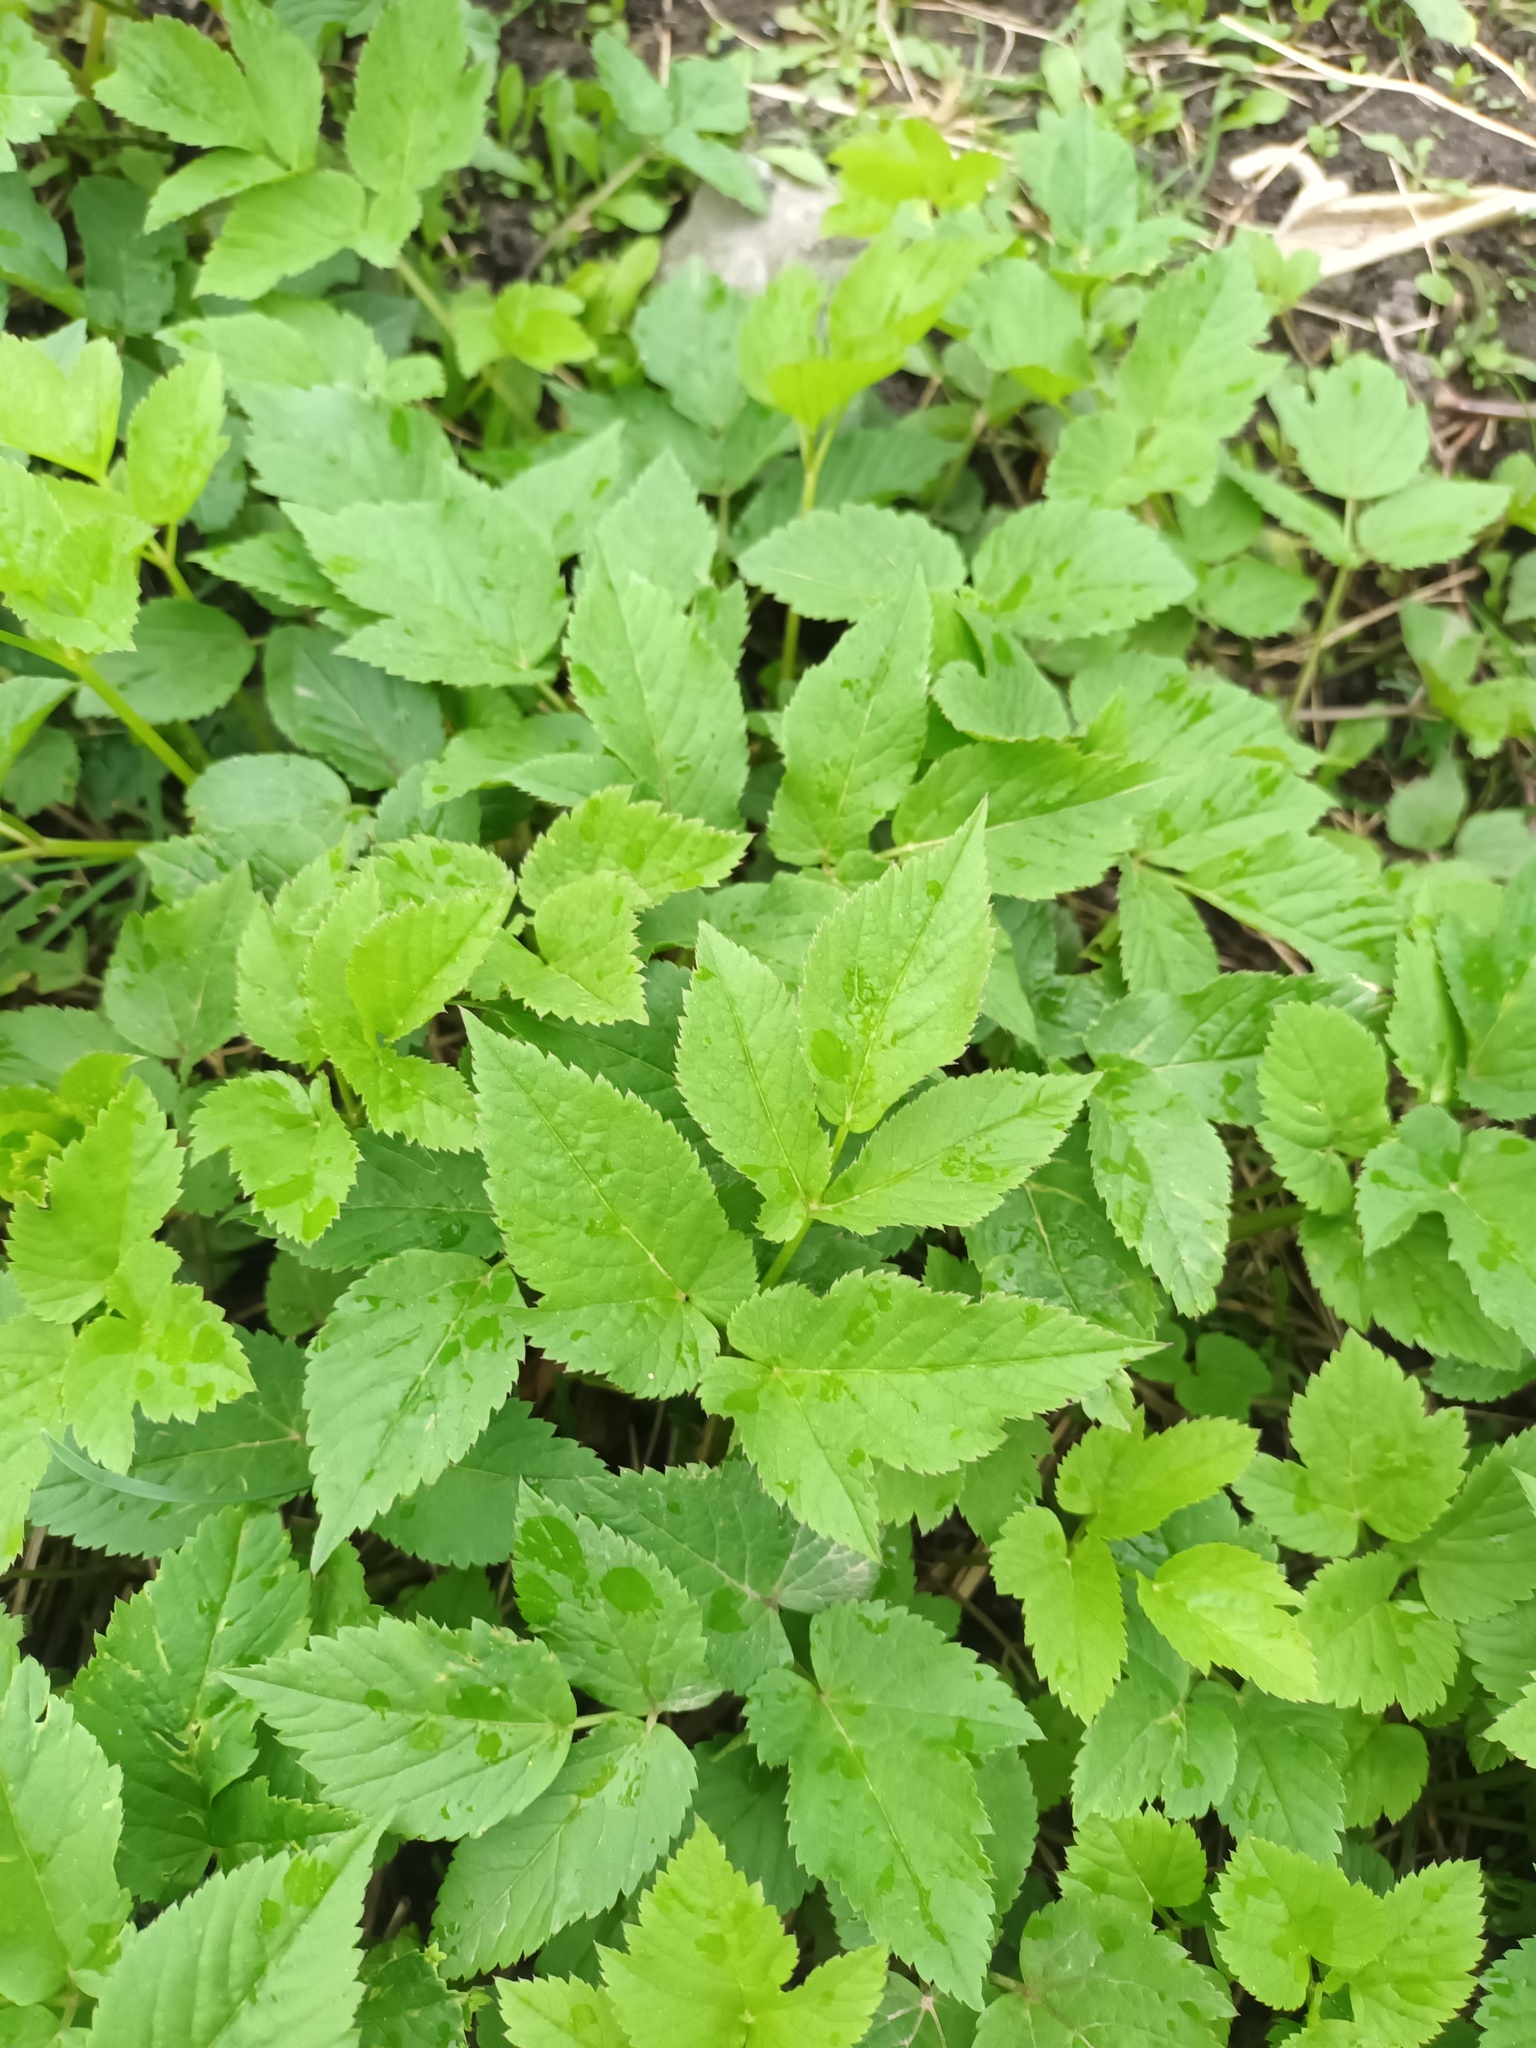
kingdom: Plantae
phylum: Tracheophyta
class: Magnoliopsida
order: Apiales
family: Apiaceae
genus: Aegopodium
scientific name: Aegopodium podagraria
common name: Ground-elder
